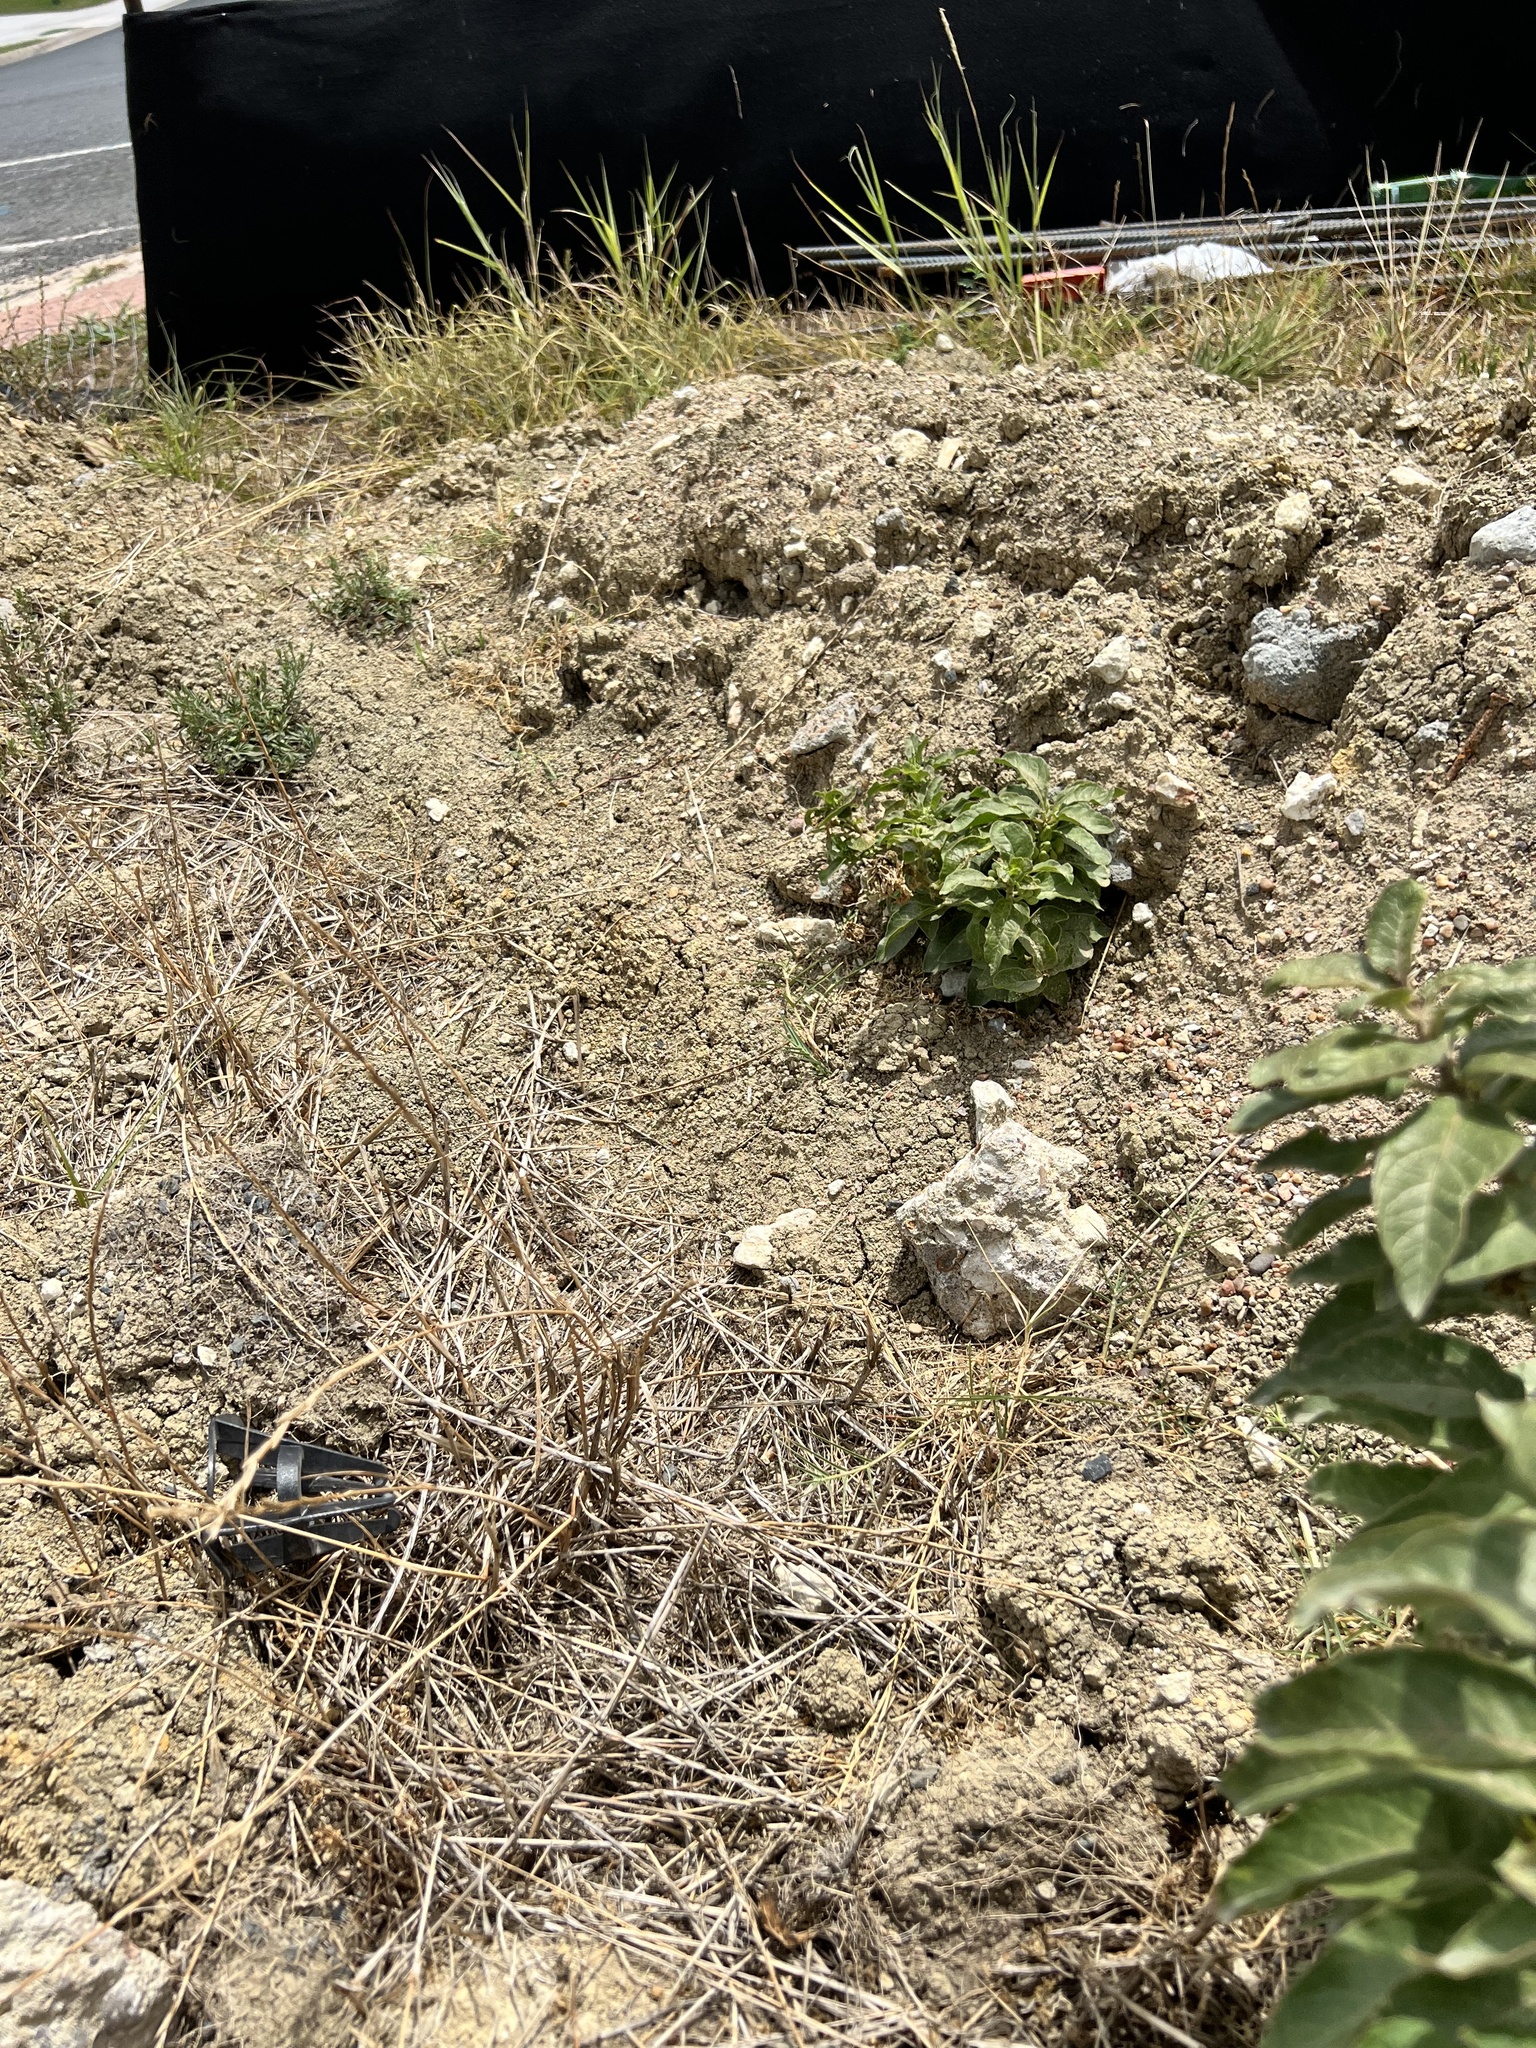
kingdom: Plantae
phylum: Tracheophyta
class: Magnoliopsida
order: Gentianales
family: Apocynaceae
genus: Asclepias
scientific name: Asclepias oenotheroides
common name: Zizotes milkweed
